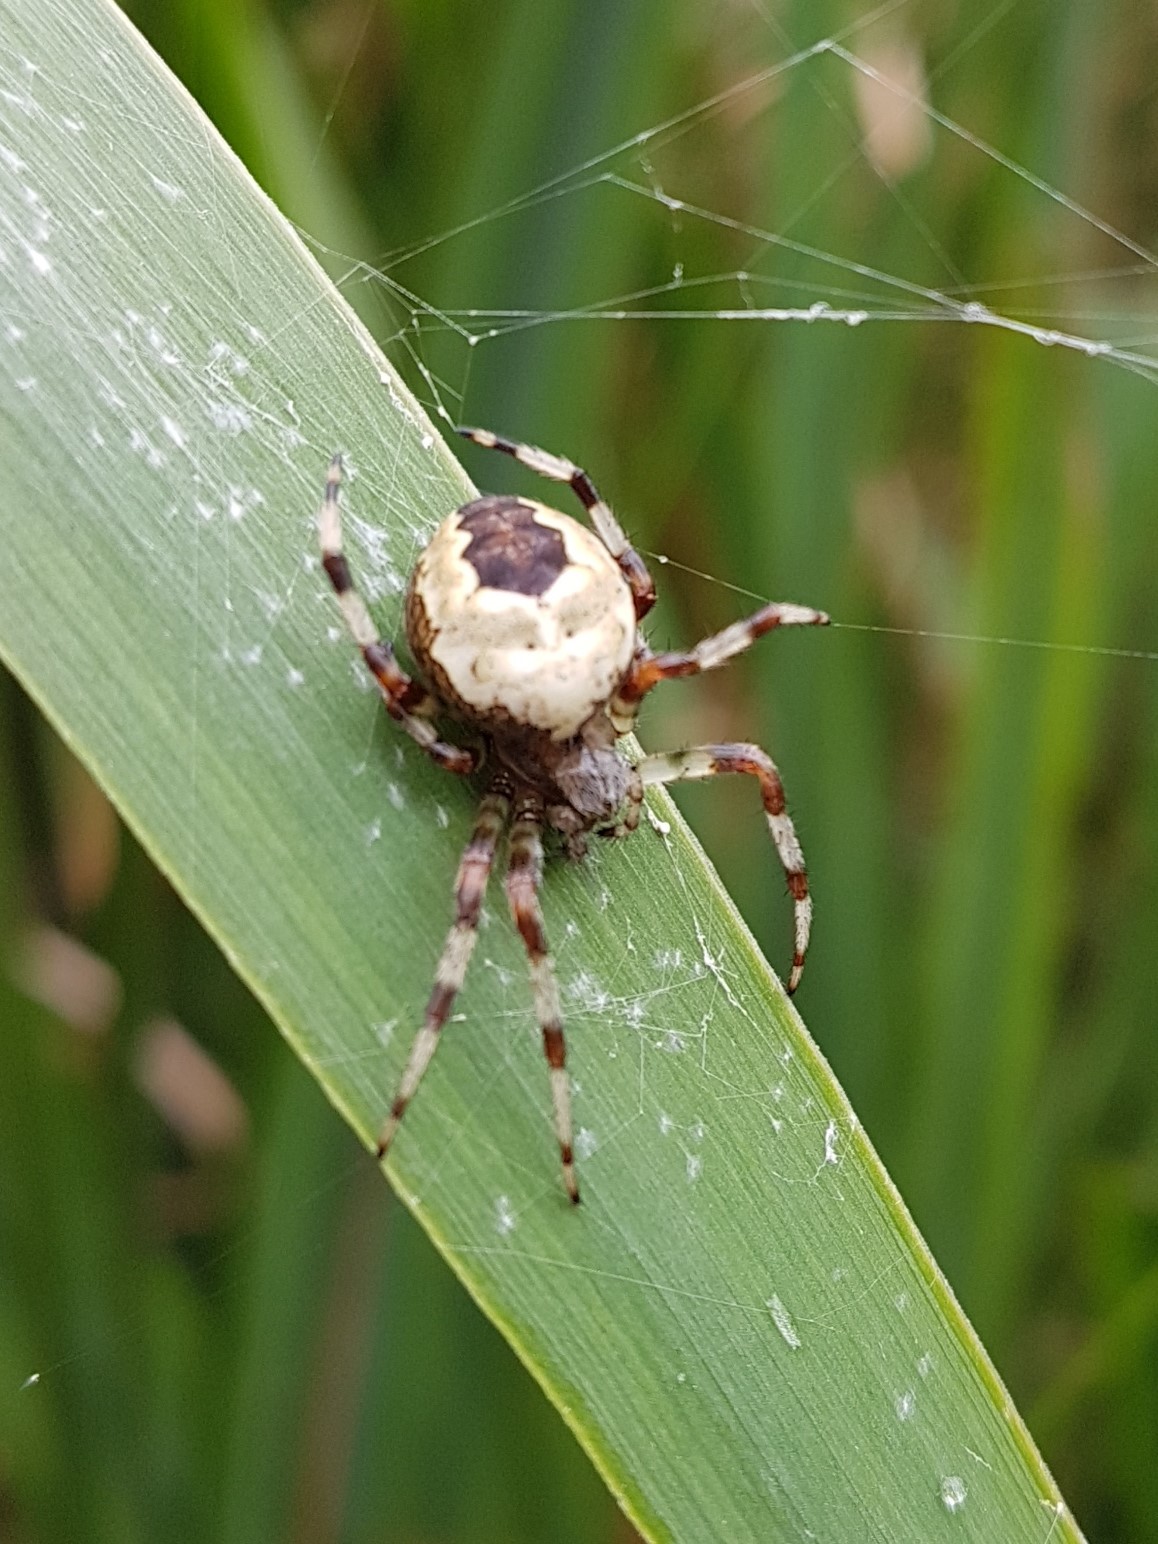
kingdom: Animalia
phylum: Arthropoda
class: Arachnida
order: Araneae
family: Araneidae
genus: Araneus
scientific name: Araneus marmoreus
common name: Marbled orbweaver
